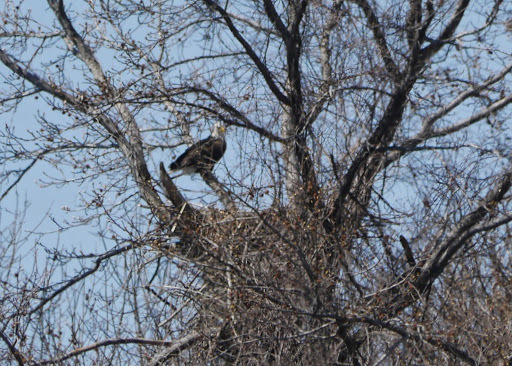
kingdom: Animalia
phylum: Chordata
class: Aves
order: Accipitriformes
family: Accipitridae
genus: Haliaeetus
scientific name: Haliaeetus leucocephalus
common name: Bald eagle
